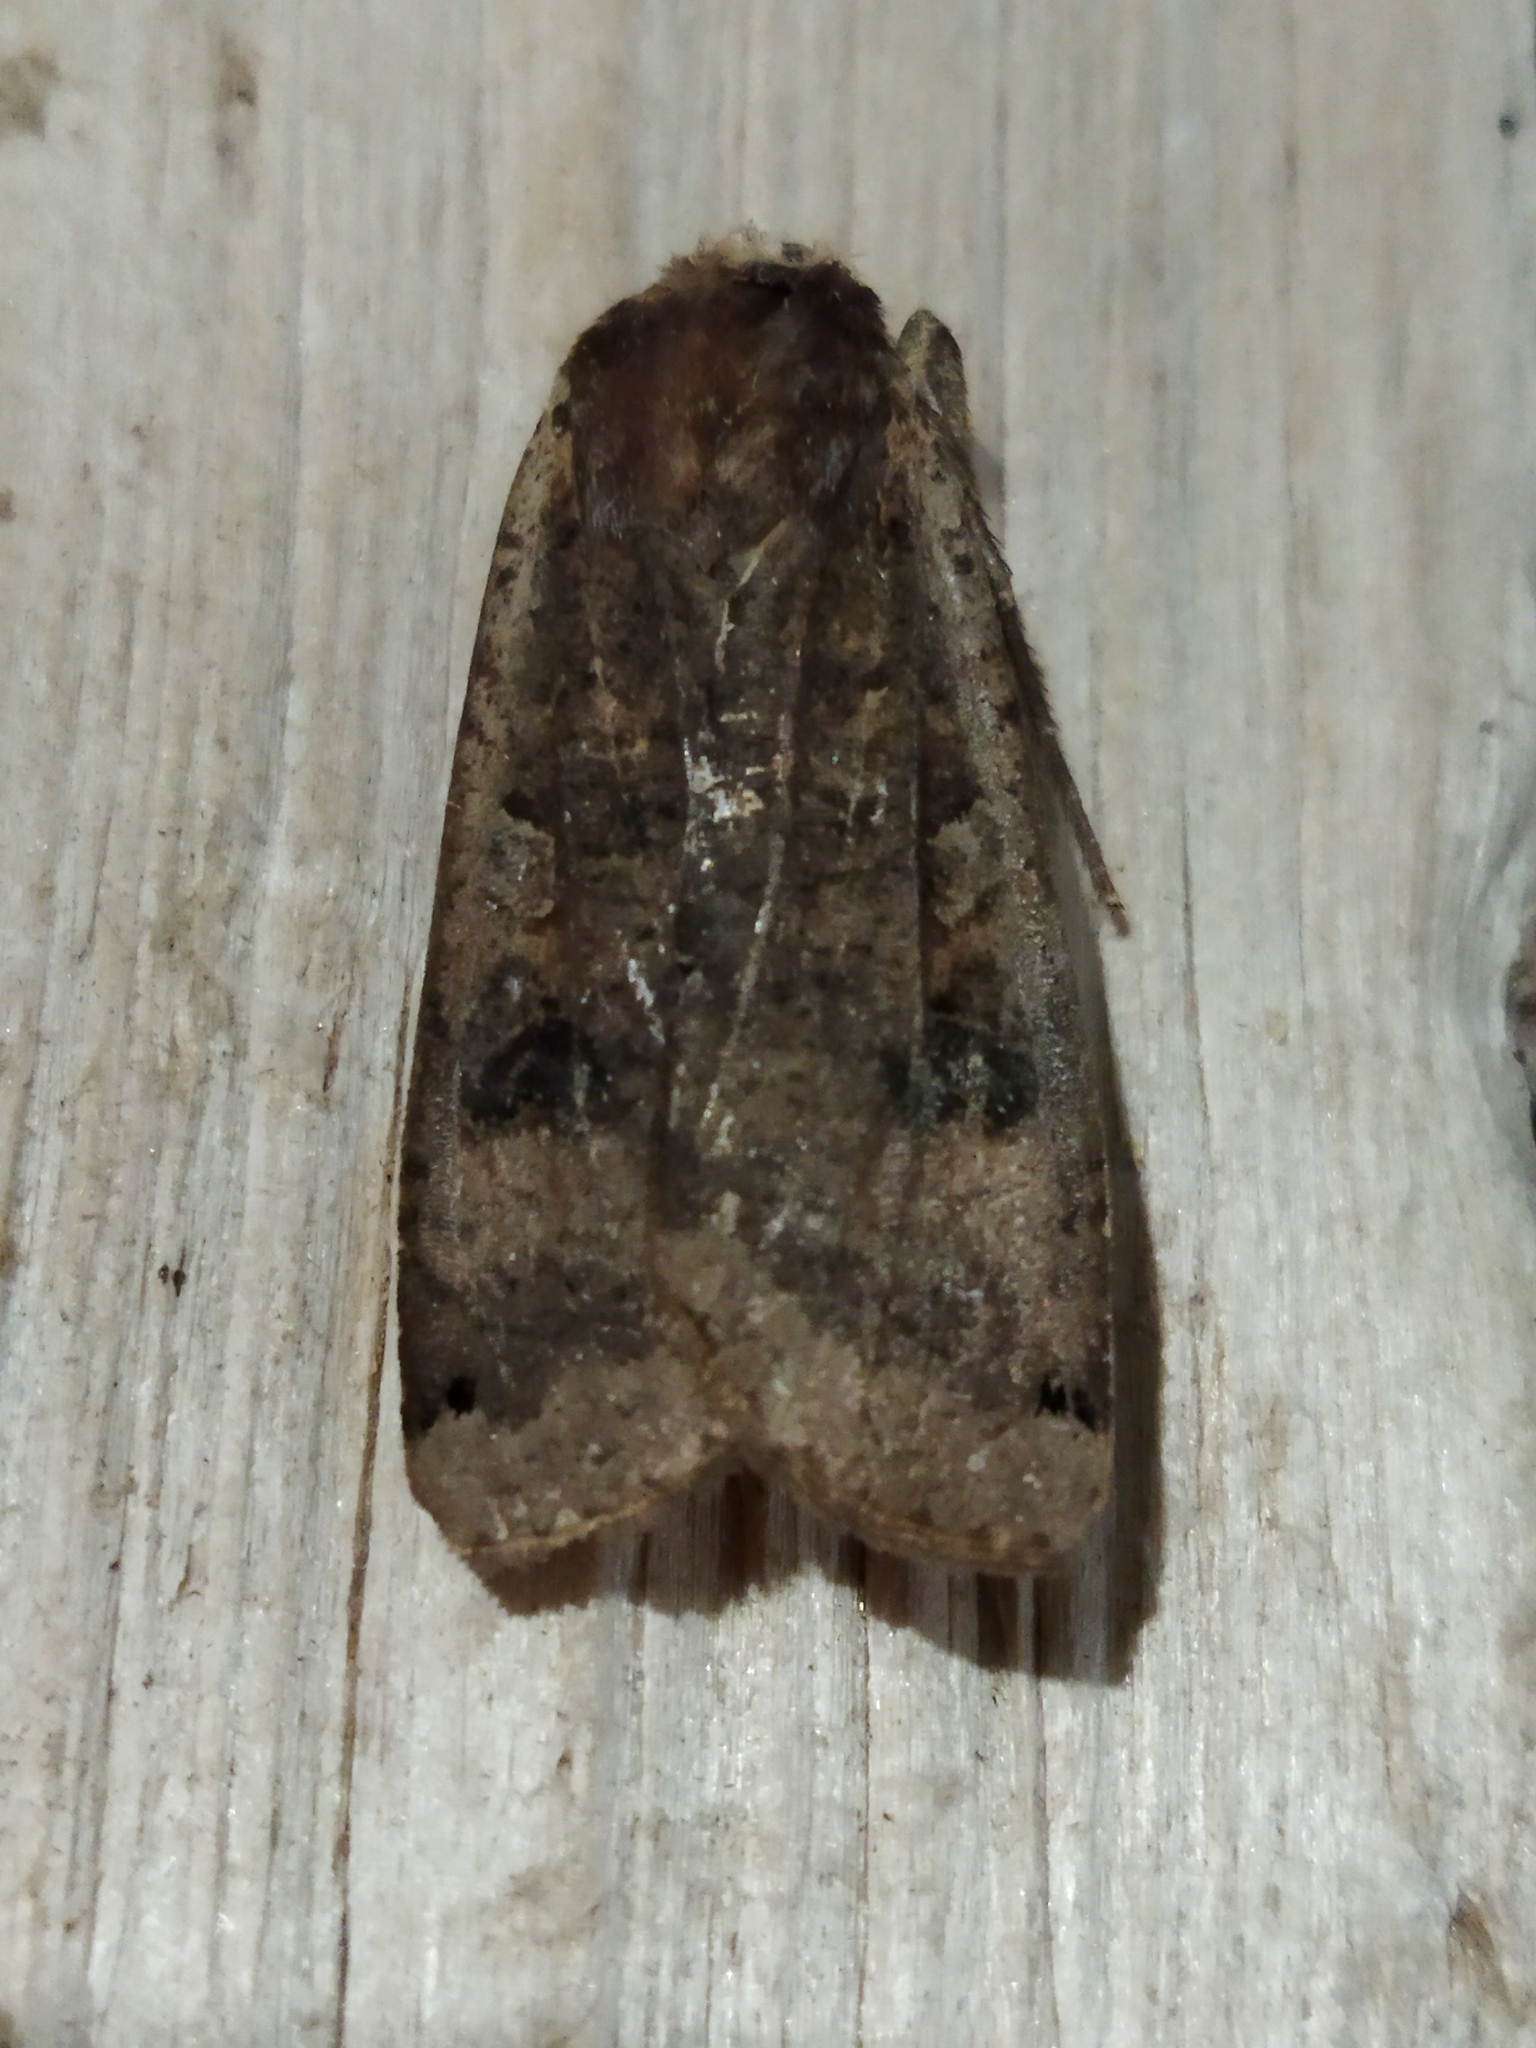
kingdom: Animalia
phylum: Arthropoda
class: Insecta
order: Lepidoptera
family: Noctuidae
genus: Noctua
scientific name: Noctua pronuba
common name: Large yellow underwing
